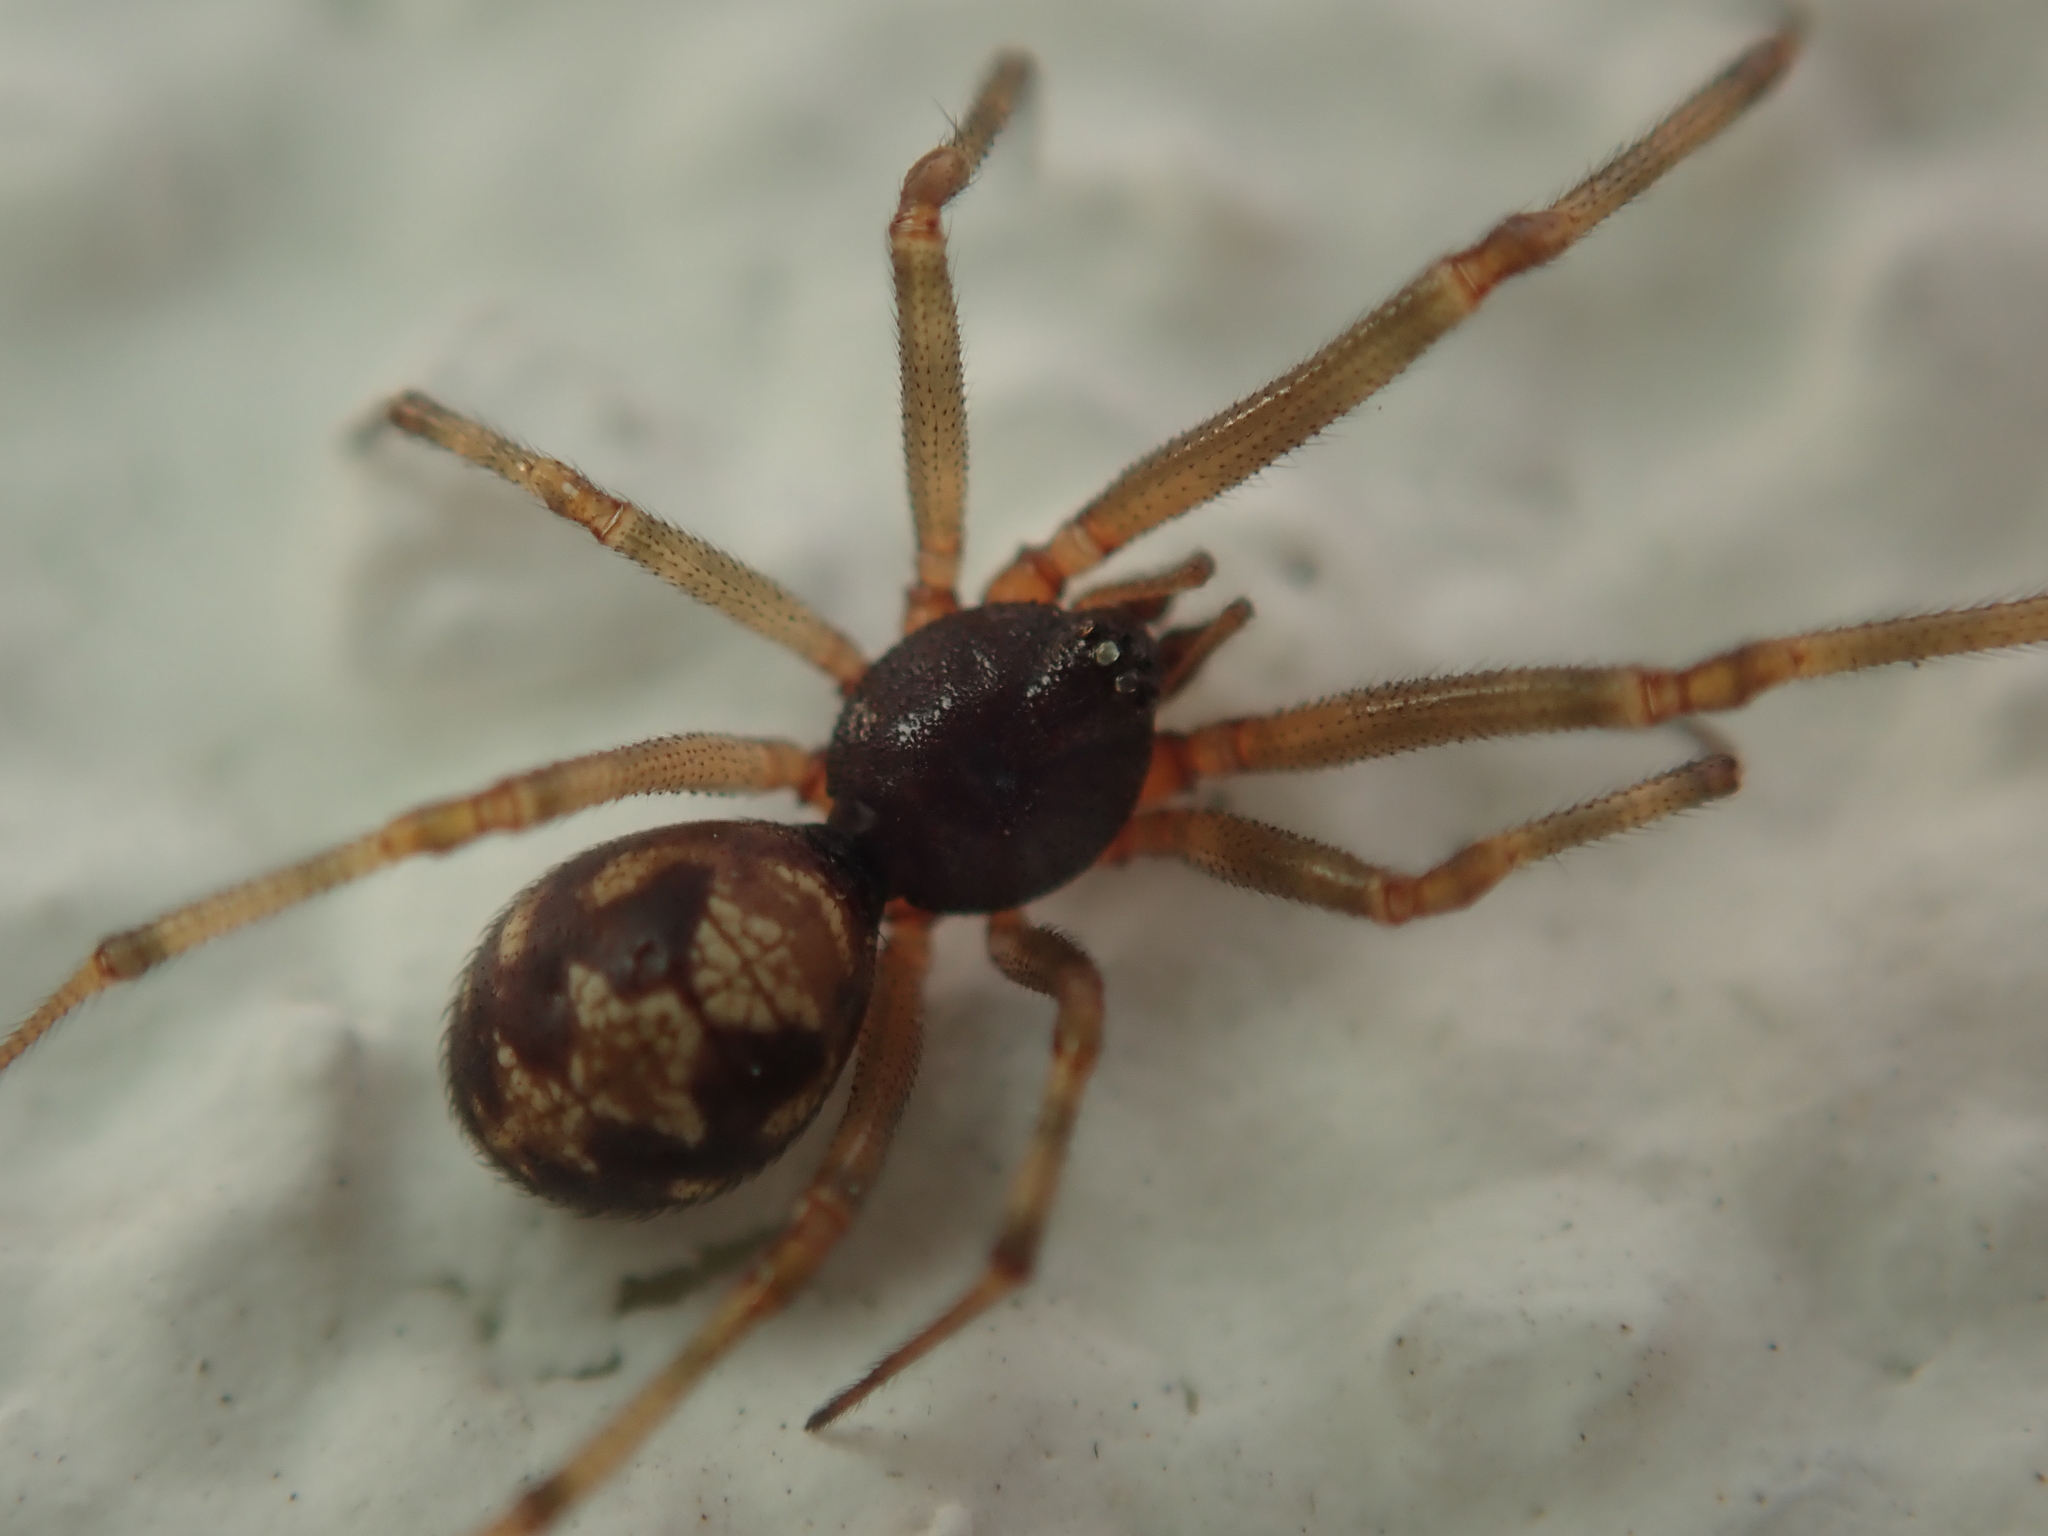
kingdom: Animalia
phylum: Arthropoda
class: Arachnida
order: Araneae
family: Theridiidae
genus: Steatoda
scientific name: Steatoda triangulosa
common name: Triangulate bud spider
